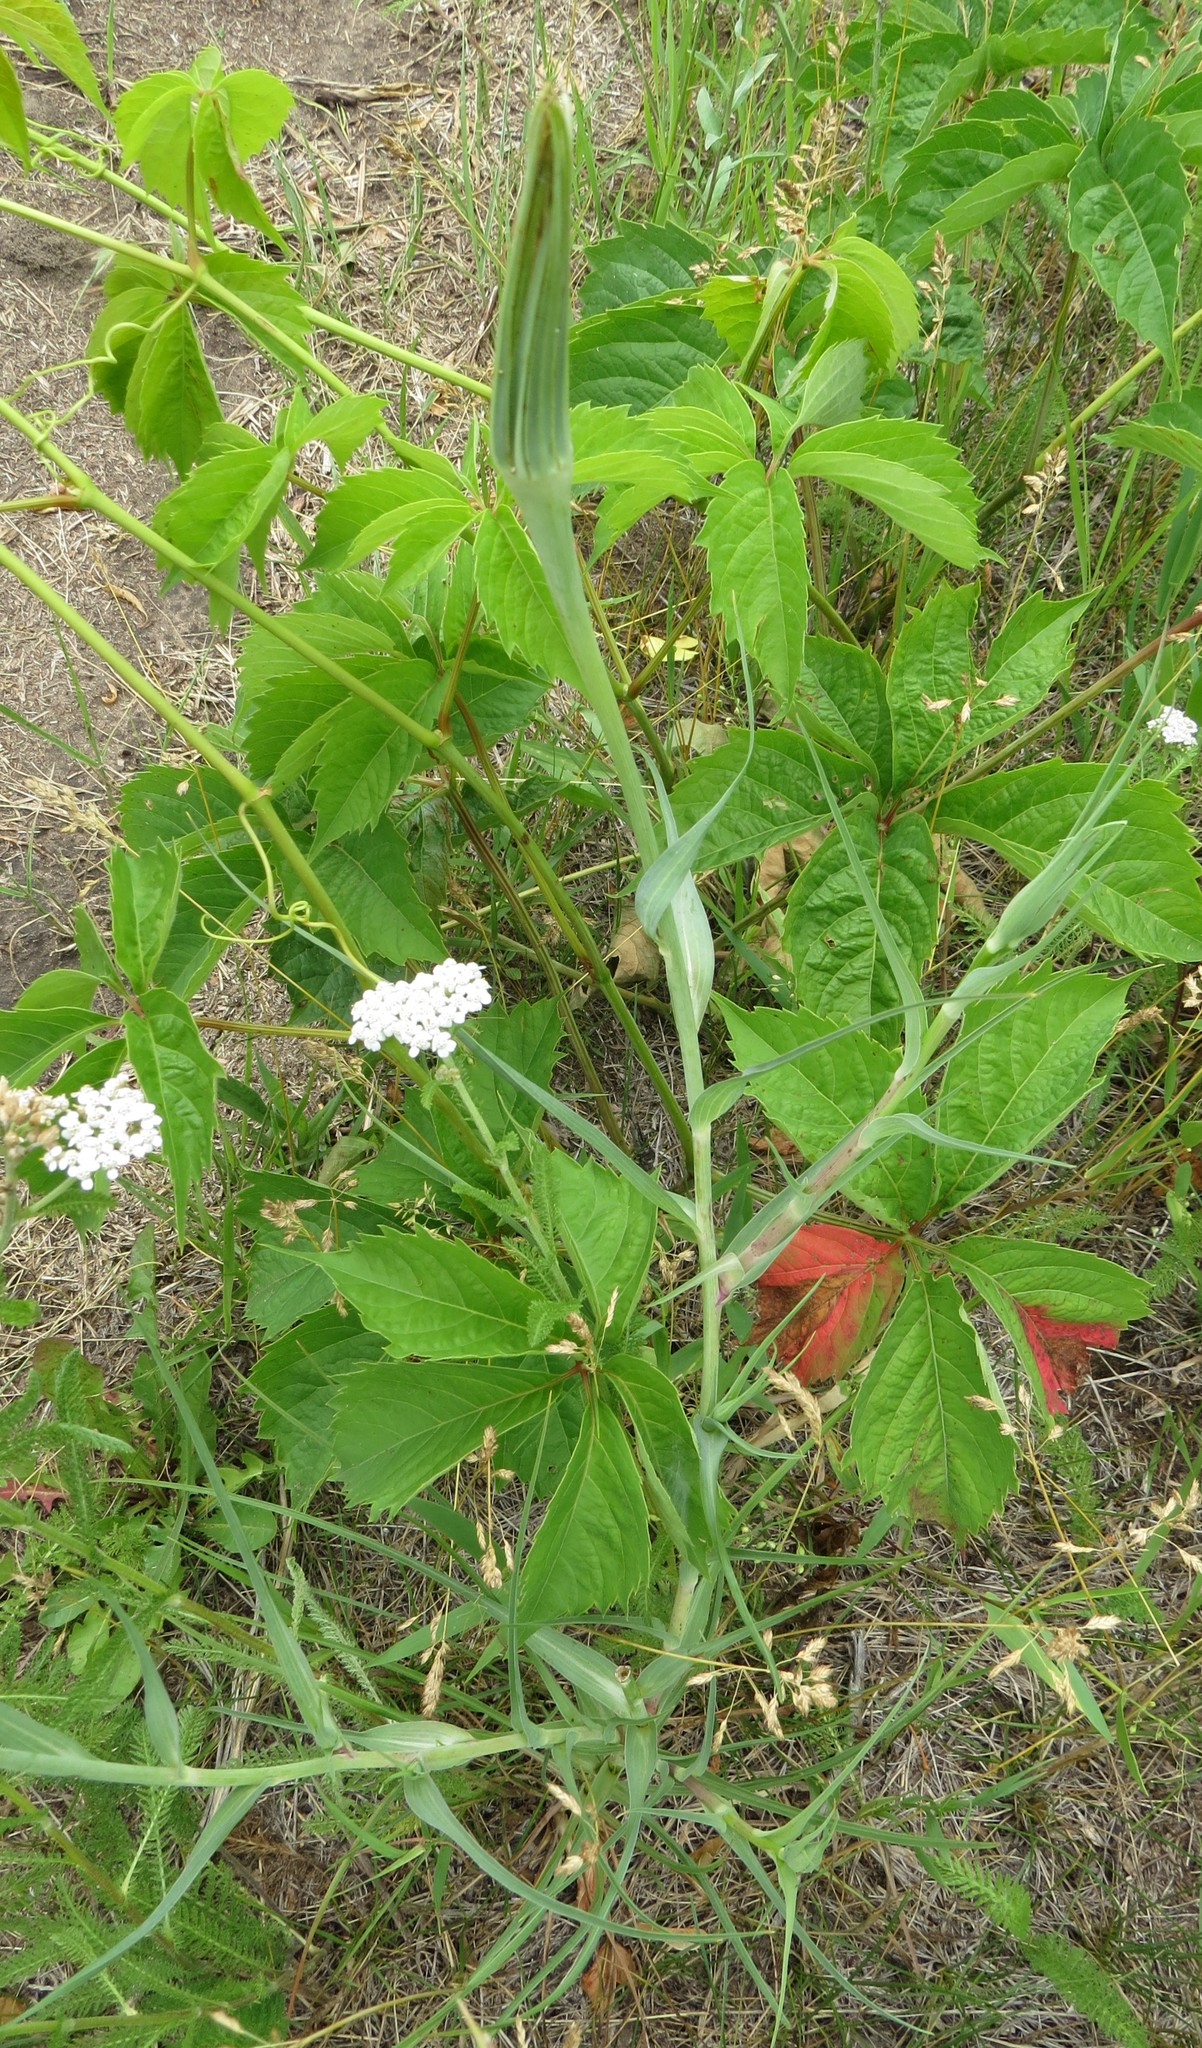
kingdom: Plantae
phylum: Tracheophyta
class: Magnoliopsida
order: Asterales
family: Asteraceae
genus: Tragopogon
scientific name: Tragopogon dubius
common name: Yellow salsify
